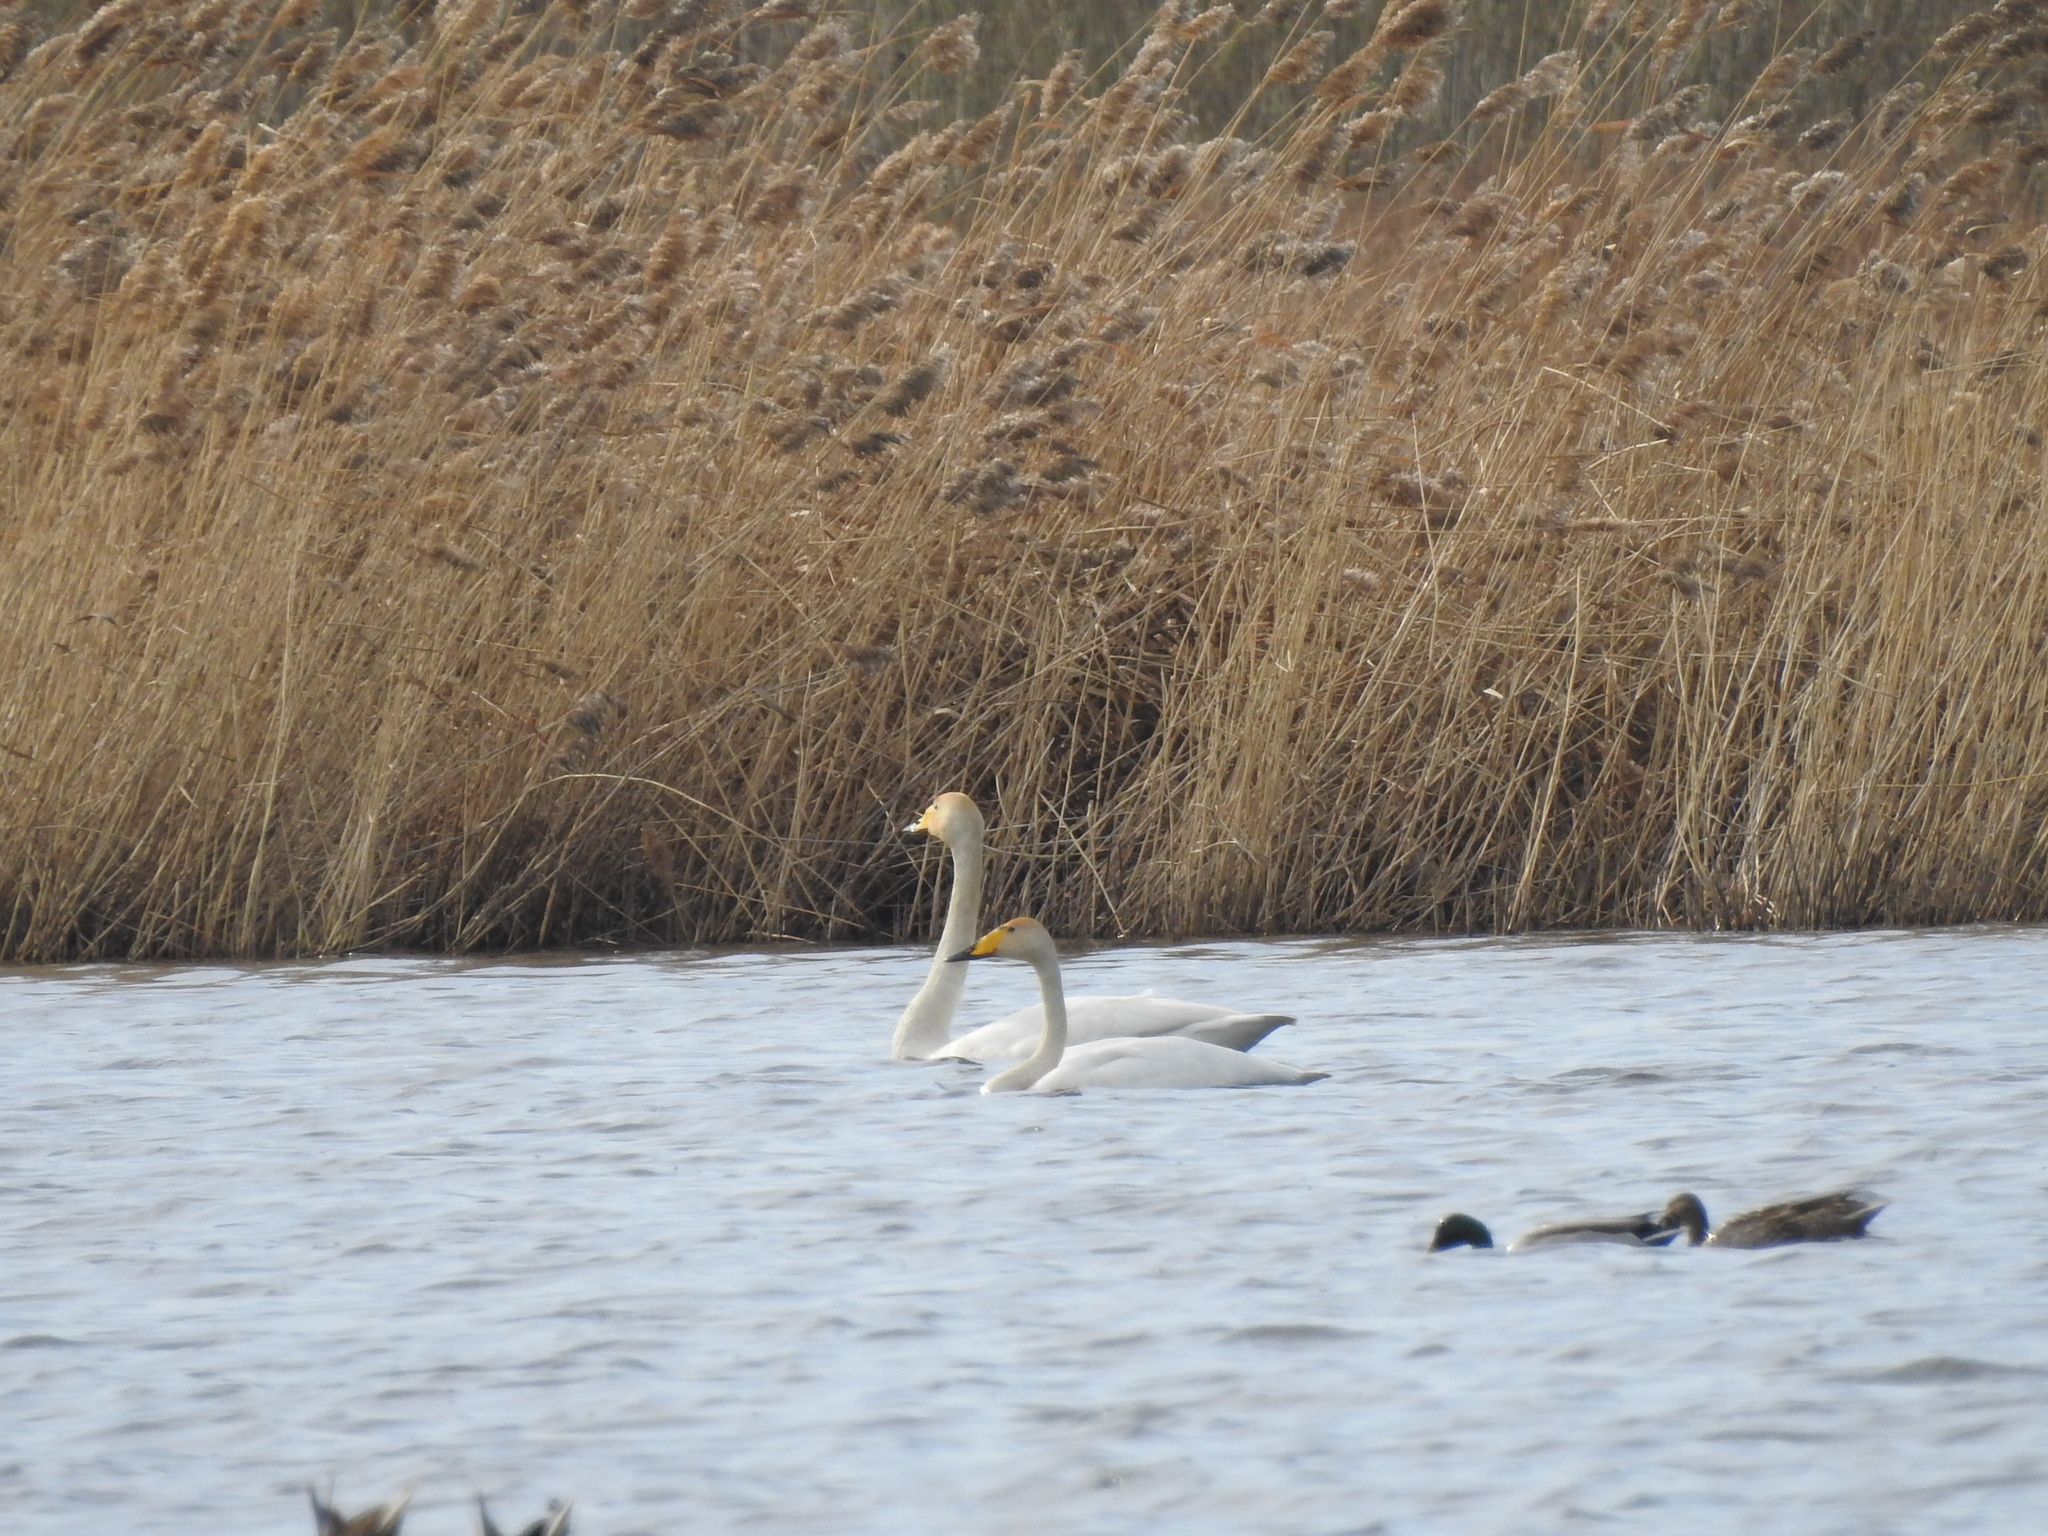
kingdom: Animalia
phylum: Chordata
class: Aves
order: Anseriformes
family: Anatidae
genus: Cygnus
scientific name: Cygnus cygnus
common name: Whooper swan
